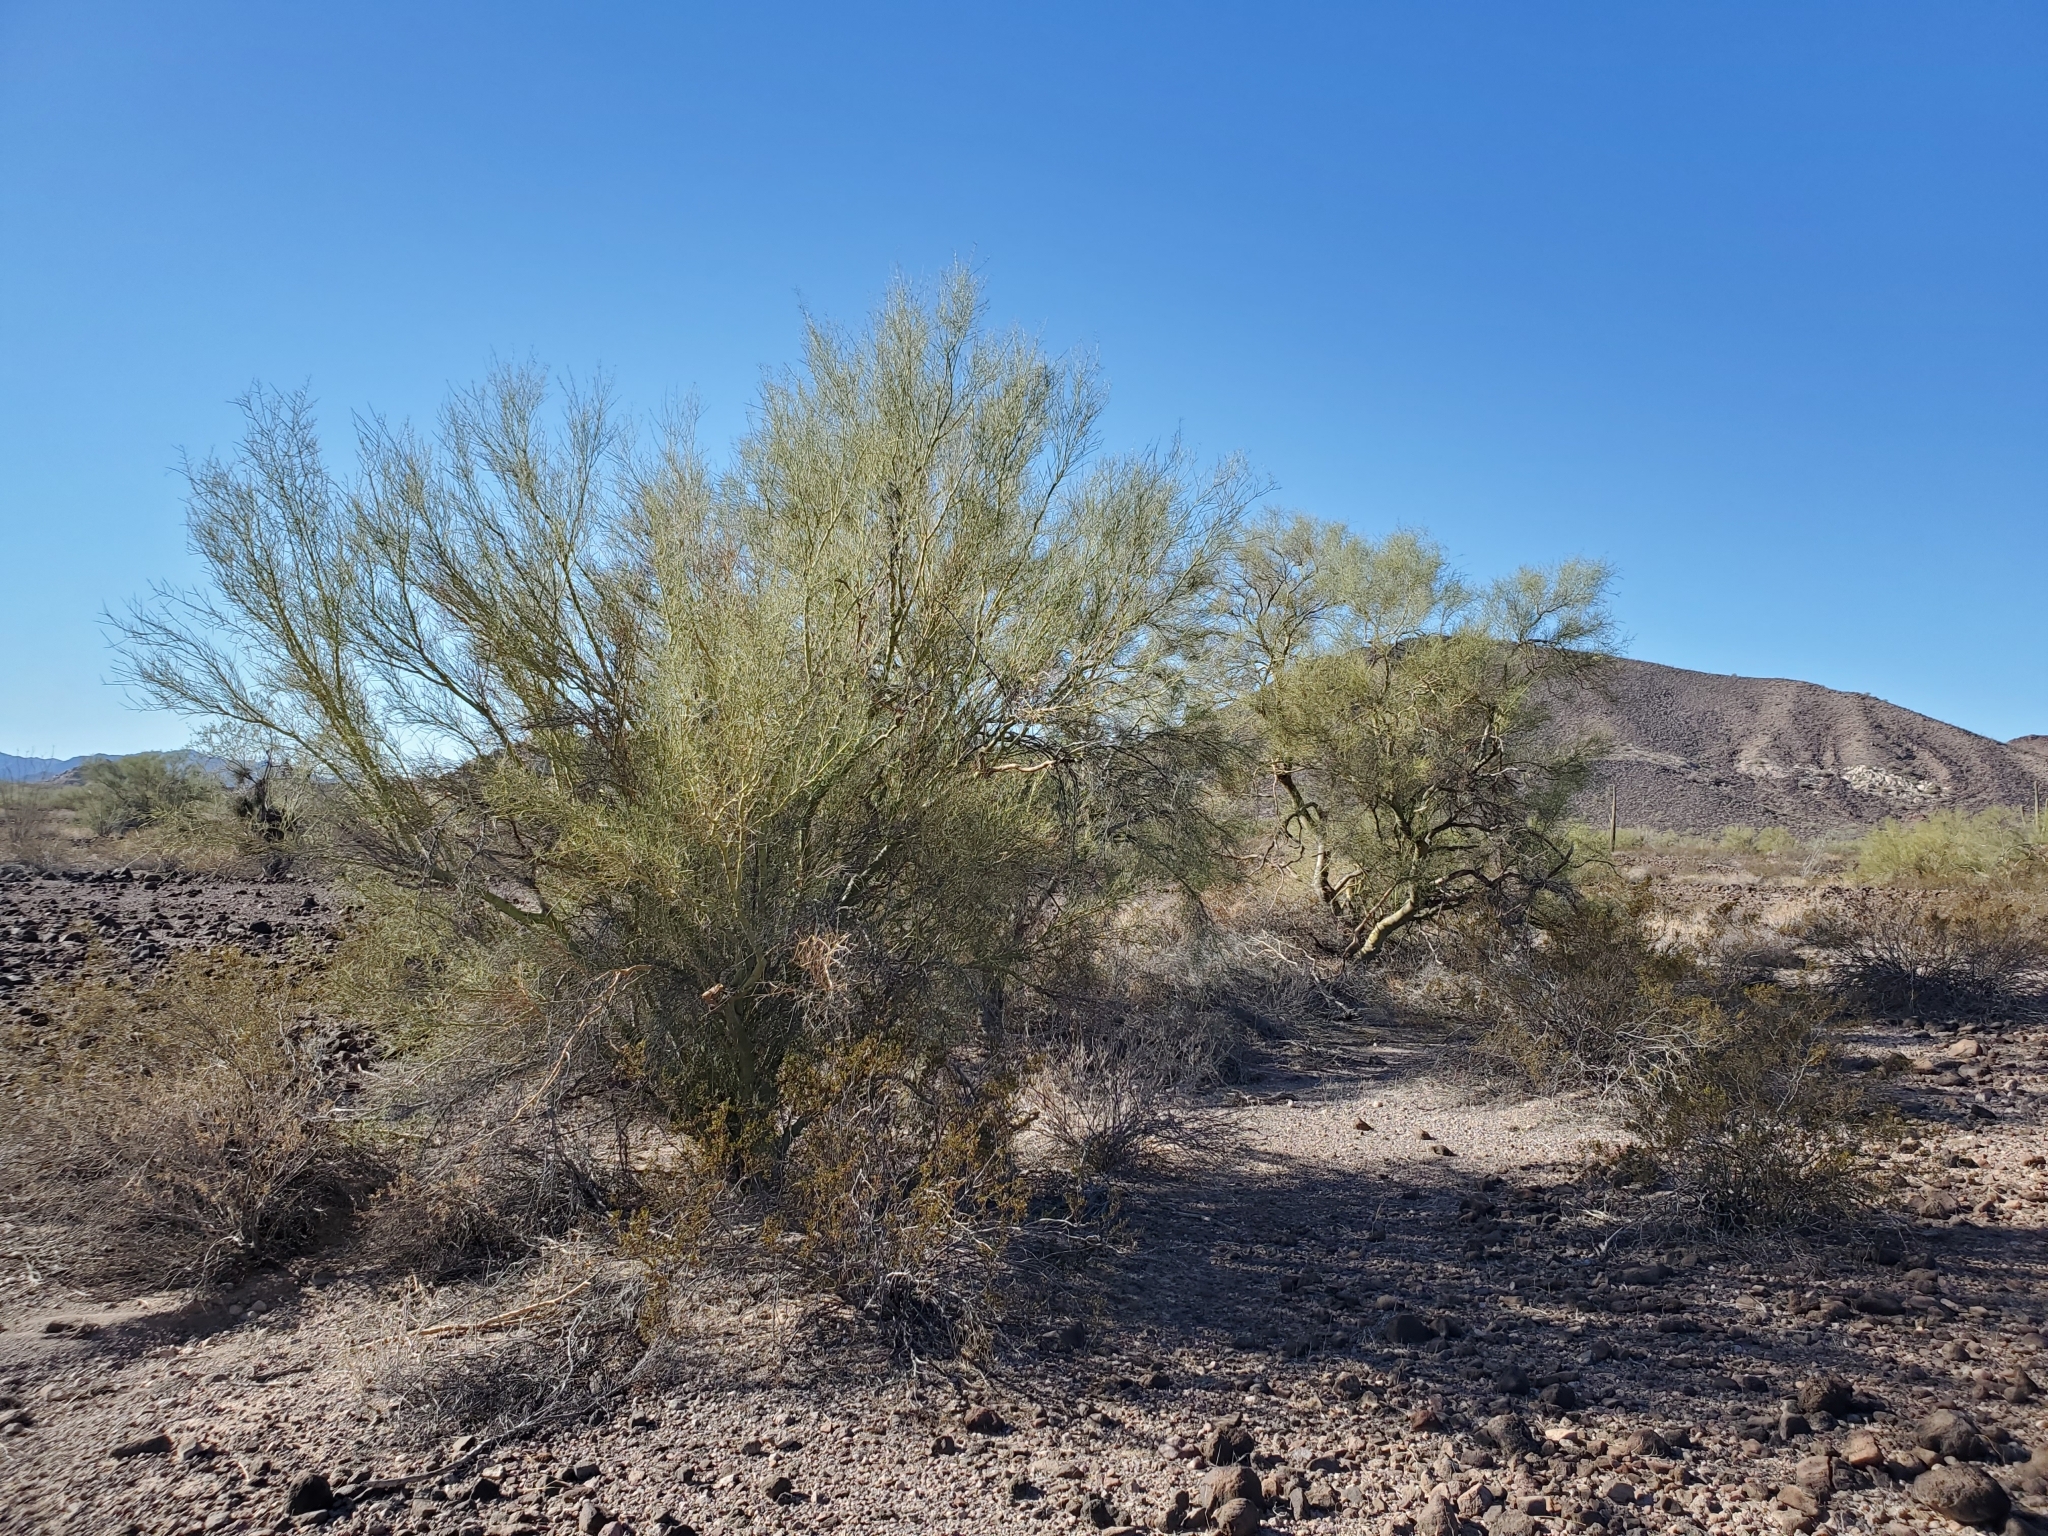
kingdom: Plantae
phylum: Tracheophyta
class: Magnoliopsida
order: Fabales
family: Fabaceae
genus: Parkinsonia
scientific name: Parkinsonia microphylla
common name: Yellow paloverde
